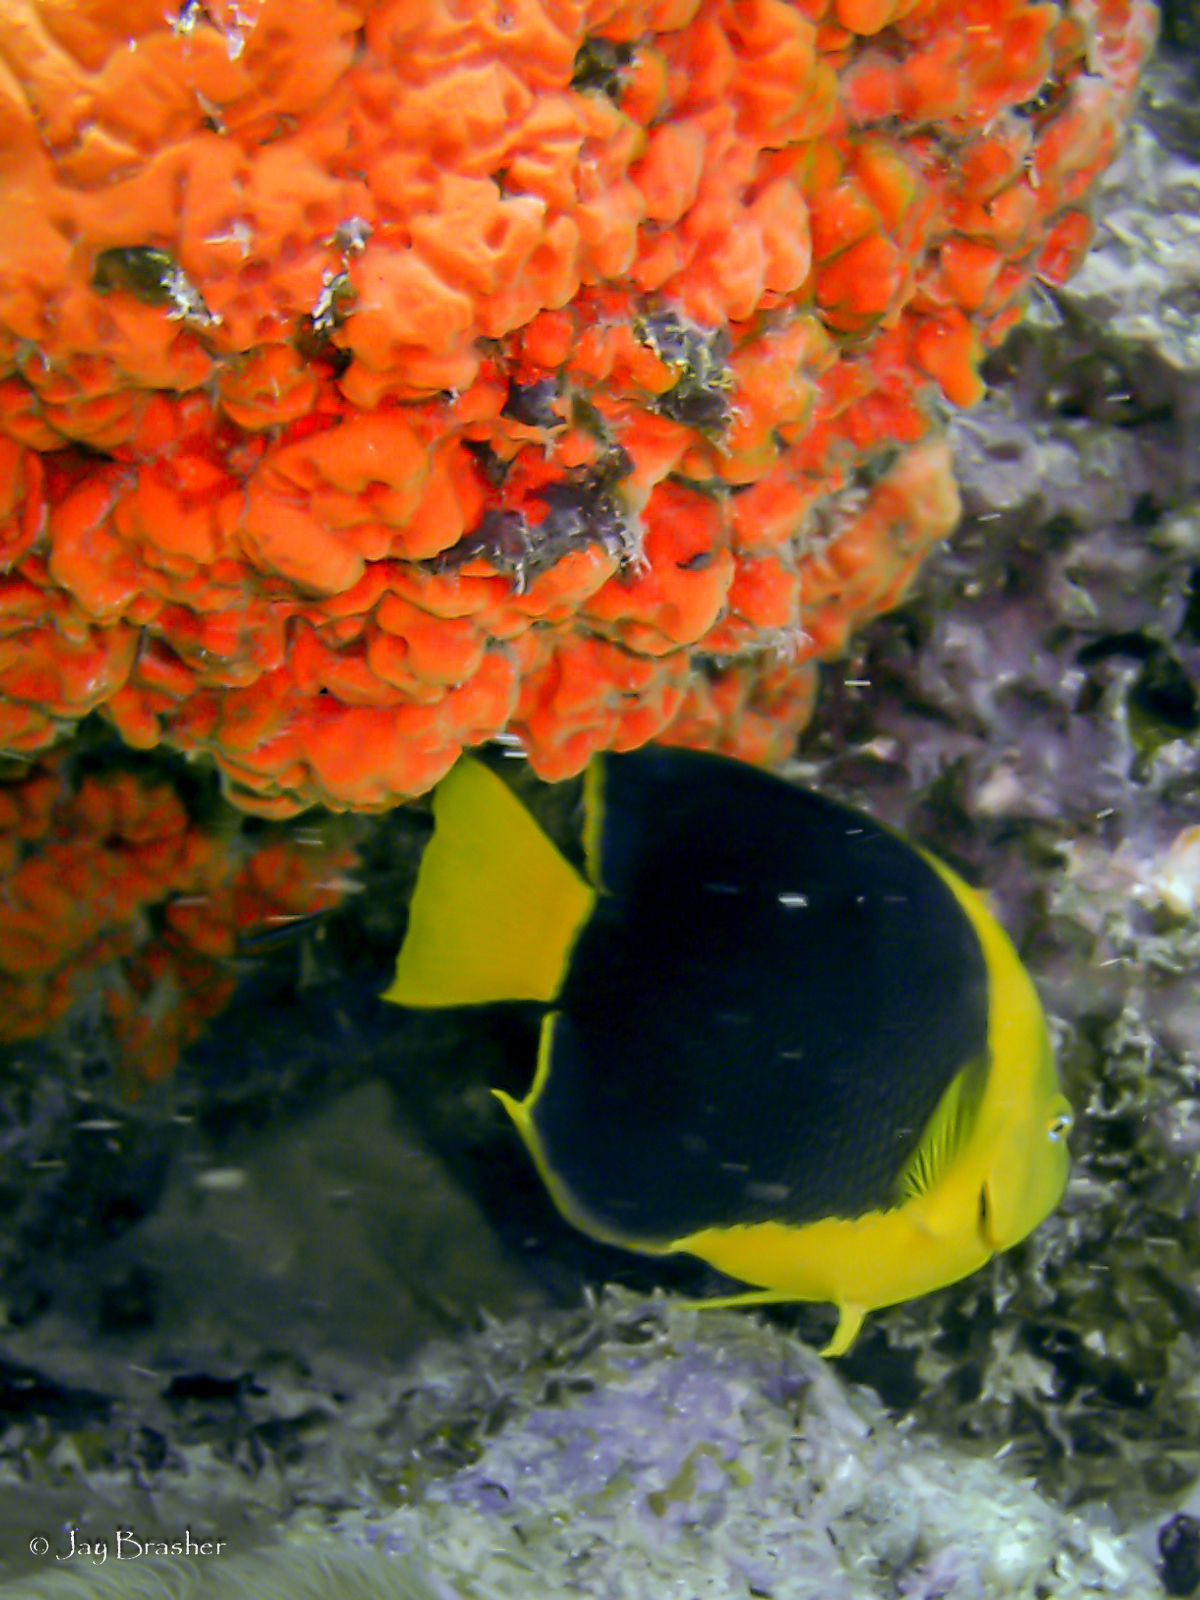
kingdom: Animalia
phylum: Porifera
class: Demospongiae
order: Agelasida
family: Agelasidae
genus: Agelas
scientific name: Agelas clathrodes
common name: Orange elephant ear sponge
